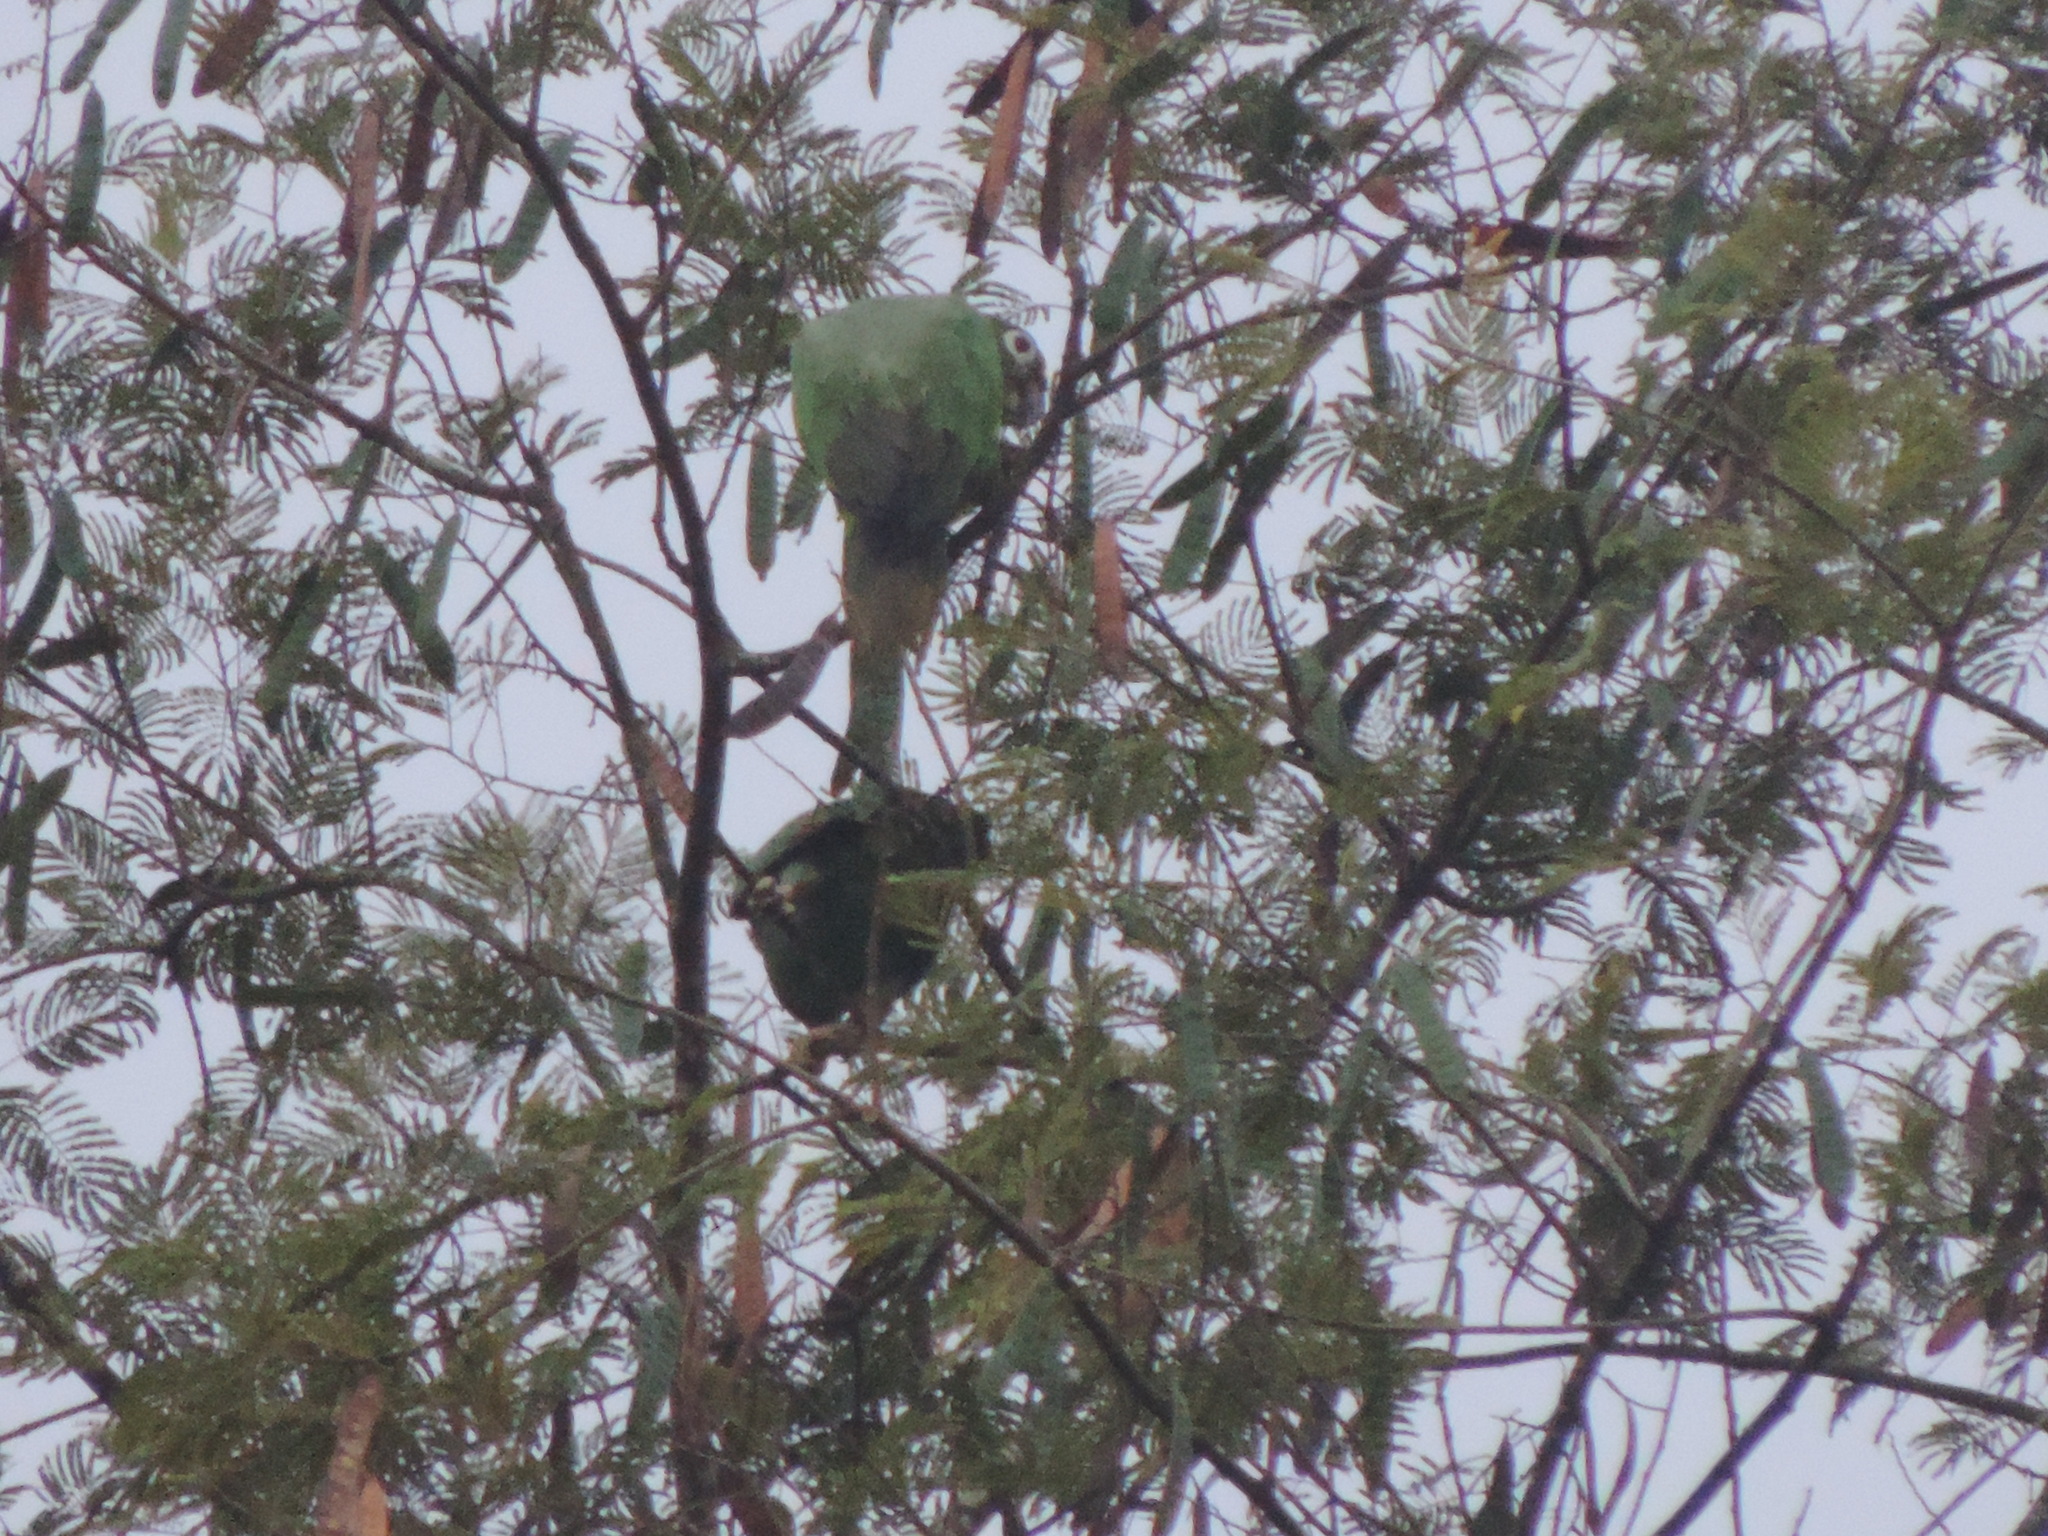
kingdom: Animalia
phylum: Chordata
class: Aves
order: Psittaciformes
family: Psittacidae
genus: Amazona
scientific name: Amazona farinosa
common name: Mealy parrot
